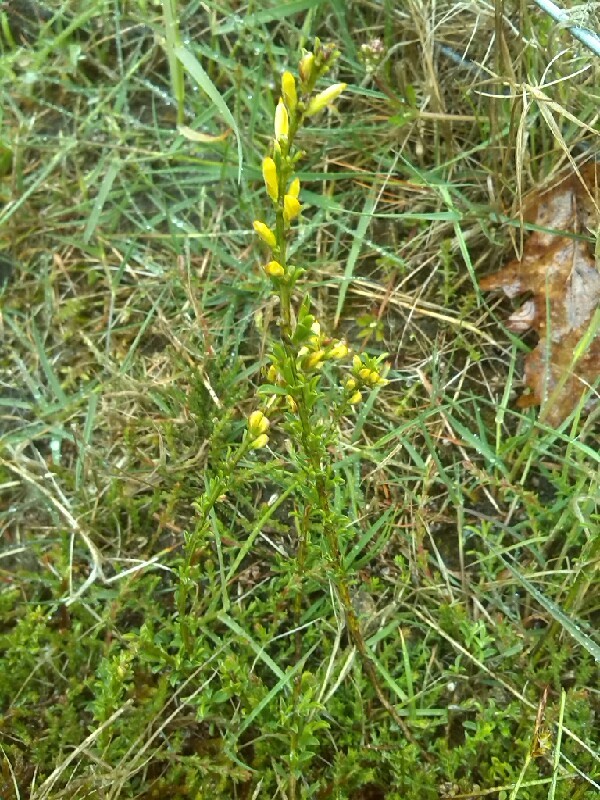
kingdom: Plantae
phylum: Tracheophyta
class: Magnoliopsida
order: Fabales
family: Fabaceae
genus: Genista
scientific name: Genista pilosa
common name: Hairy greenweed
